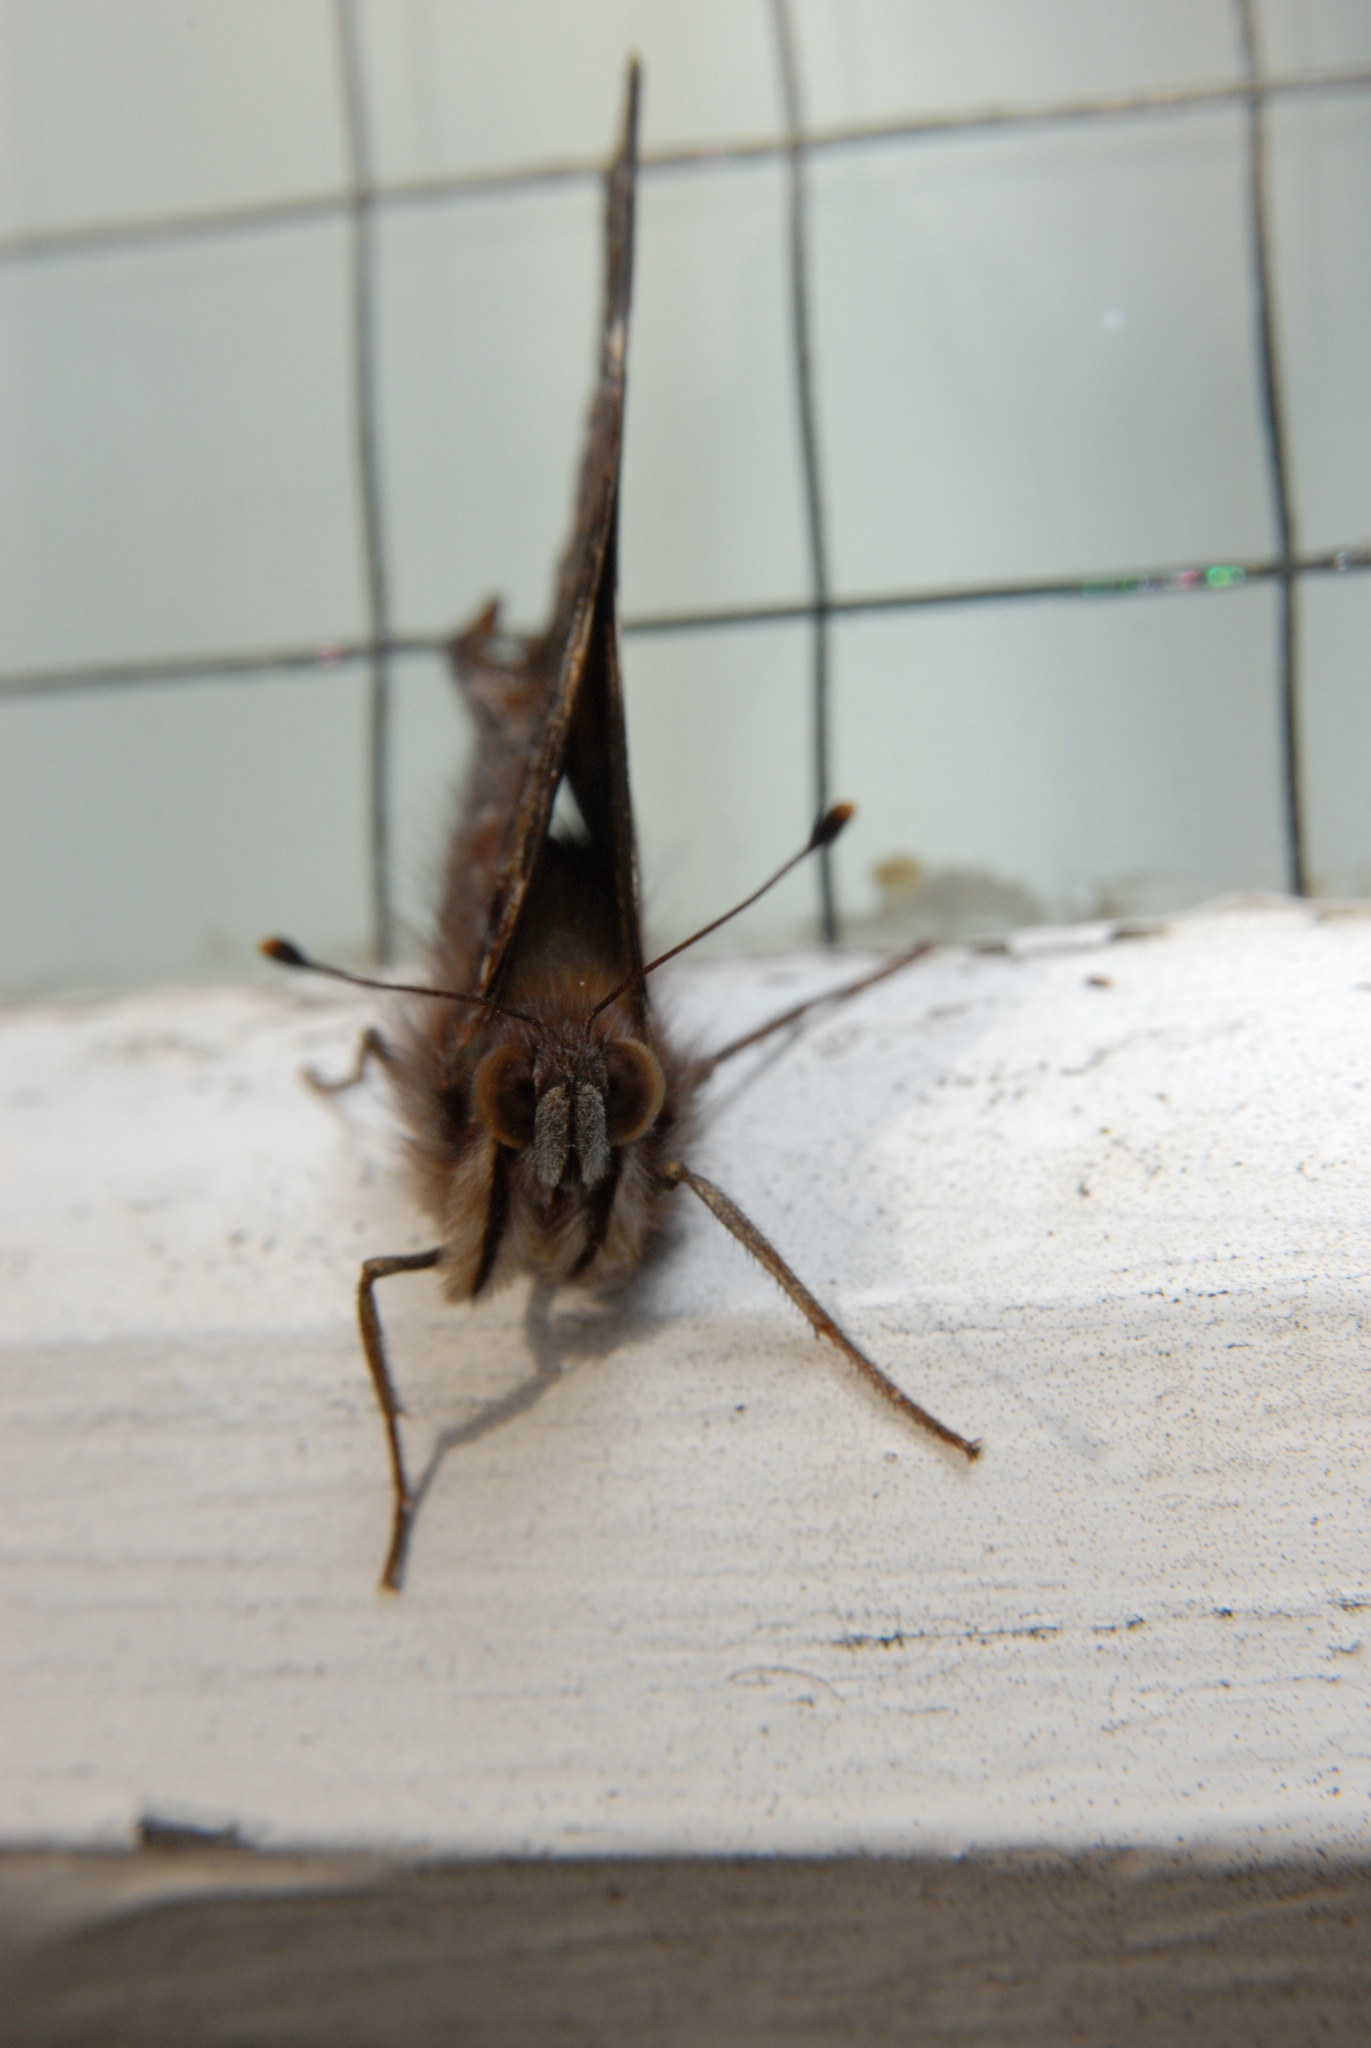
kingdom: Animalia
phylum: Arthropoda
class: Insecta
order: Lepidoptera
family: Nymphalidae
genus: Vanessa
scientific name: Vanessa itea
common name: Yellow admiral
